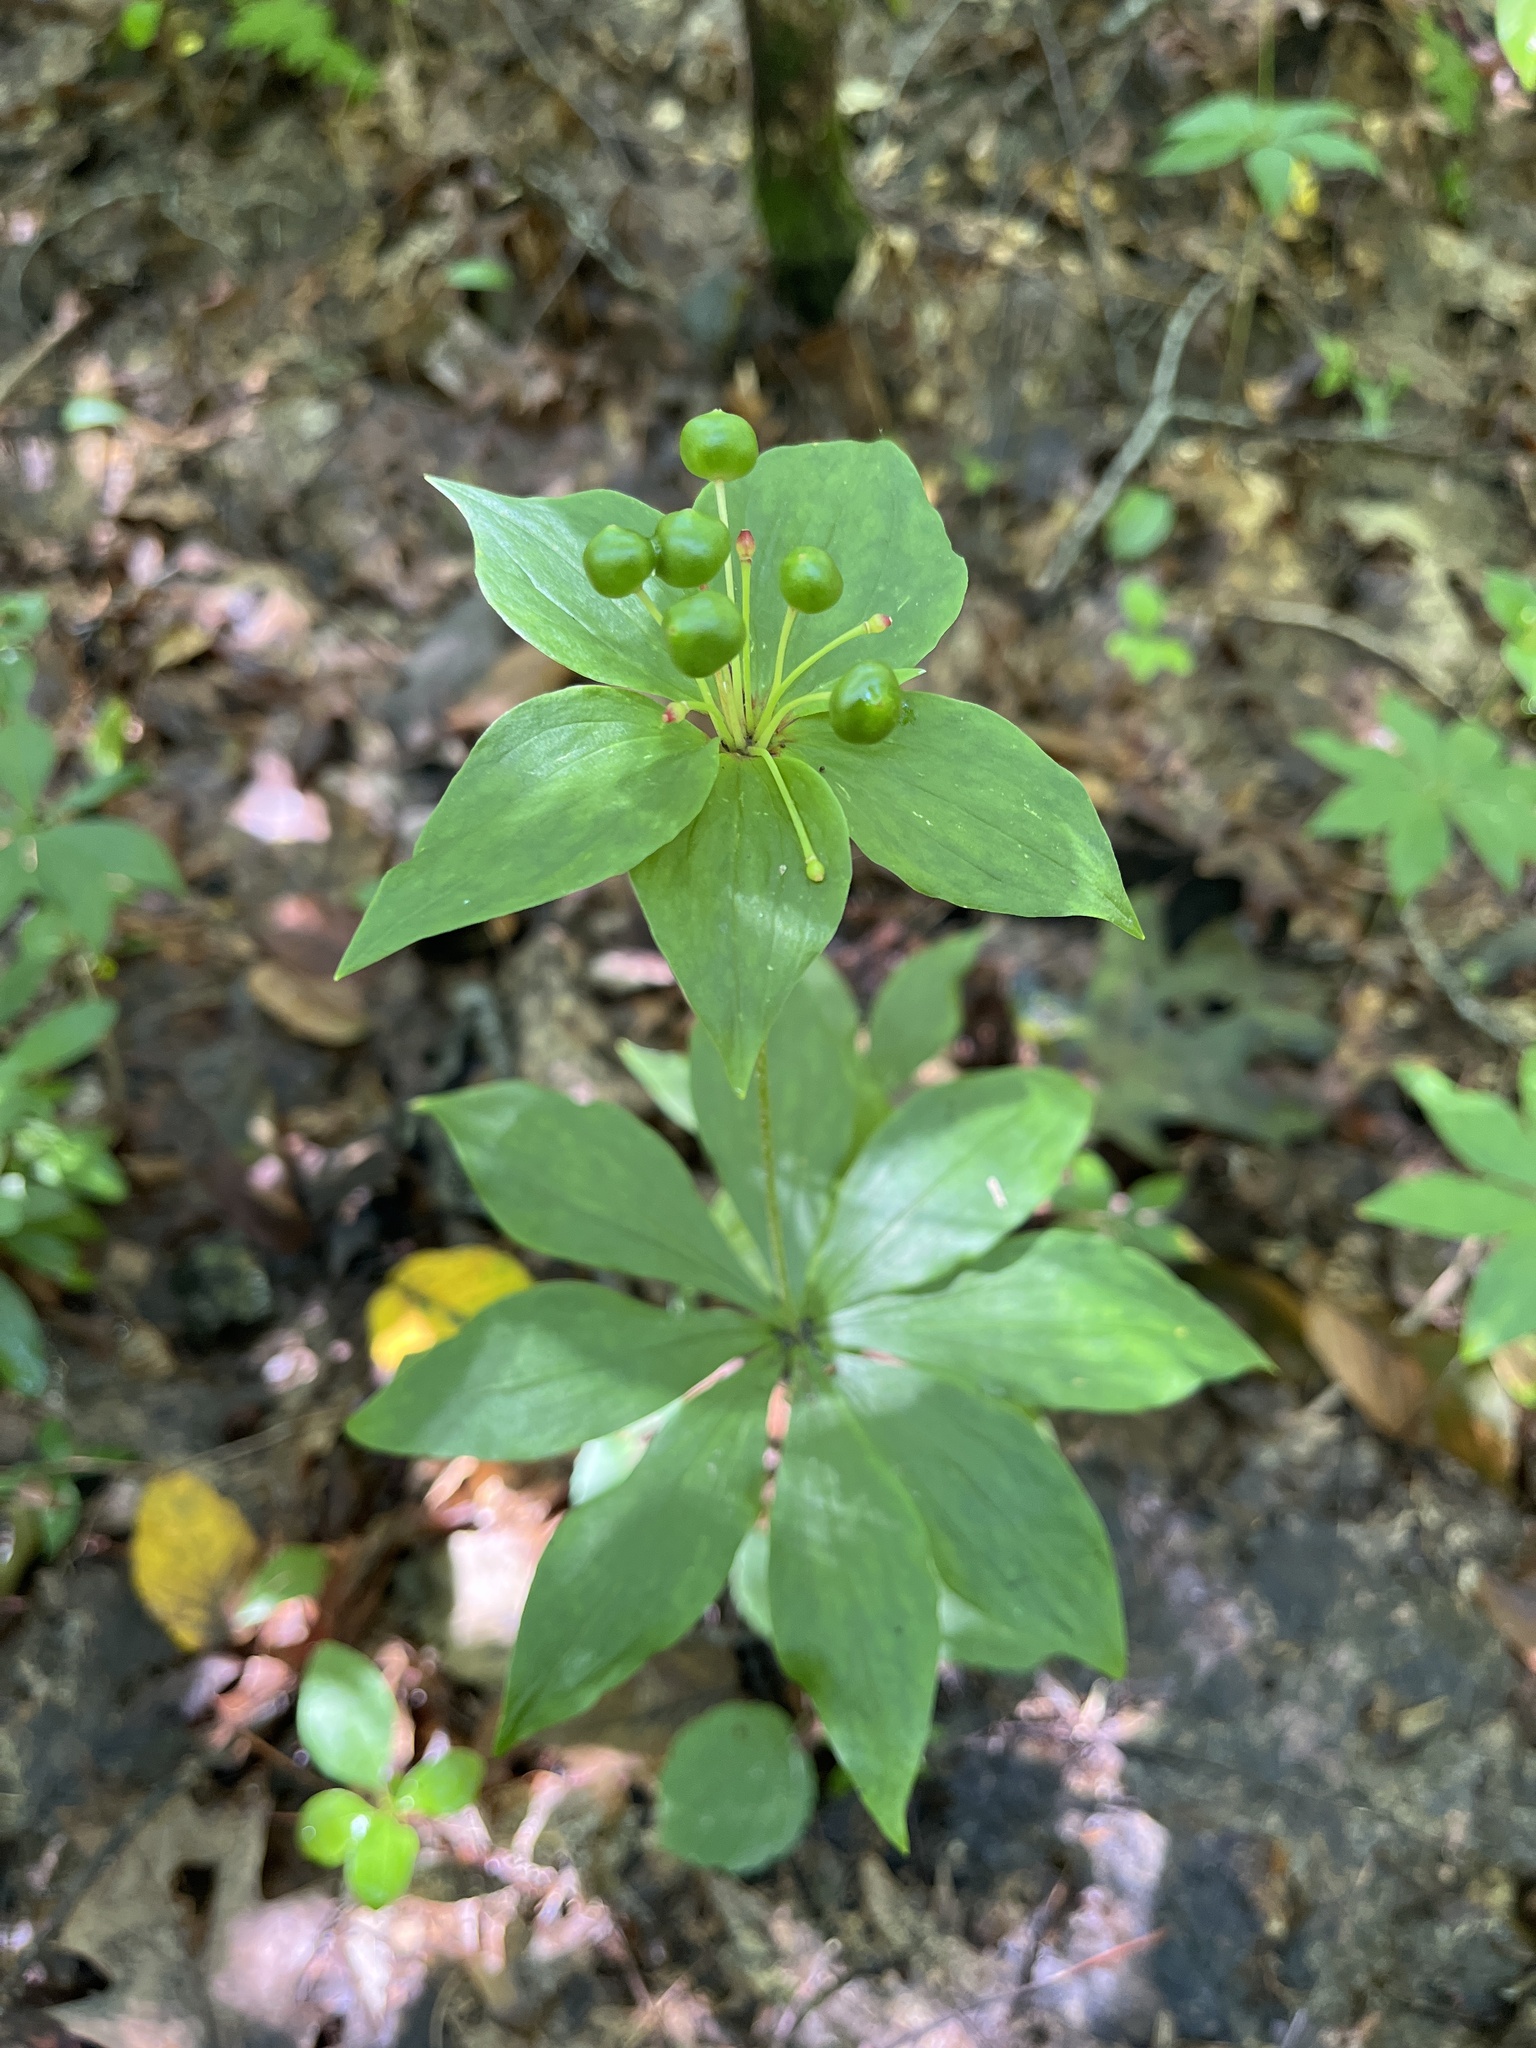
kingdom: Plantae
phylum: Tracheophyta
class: Liliopsida
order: Liliales
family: Liliaceae
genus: Medeola
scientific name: Medeola virginiana
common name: Indian cucumber-root
